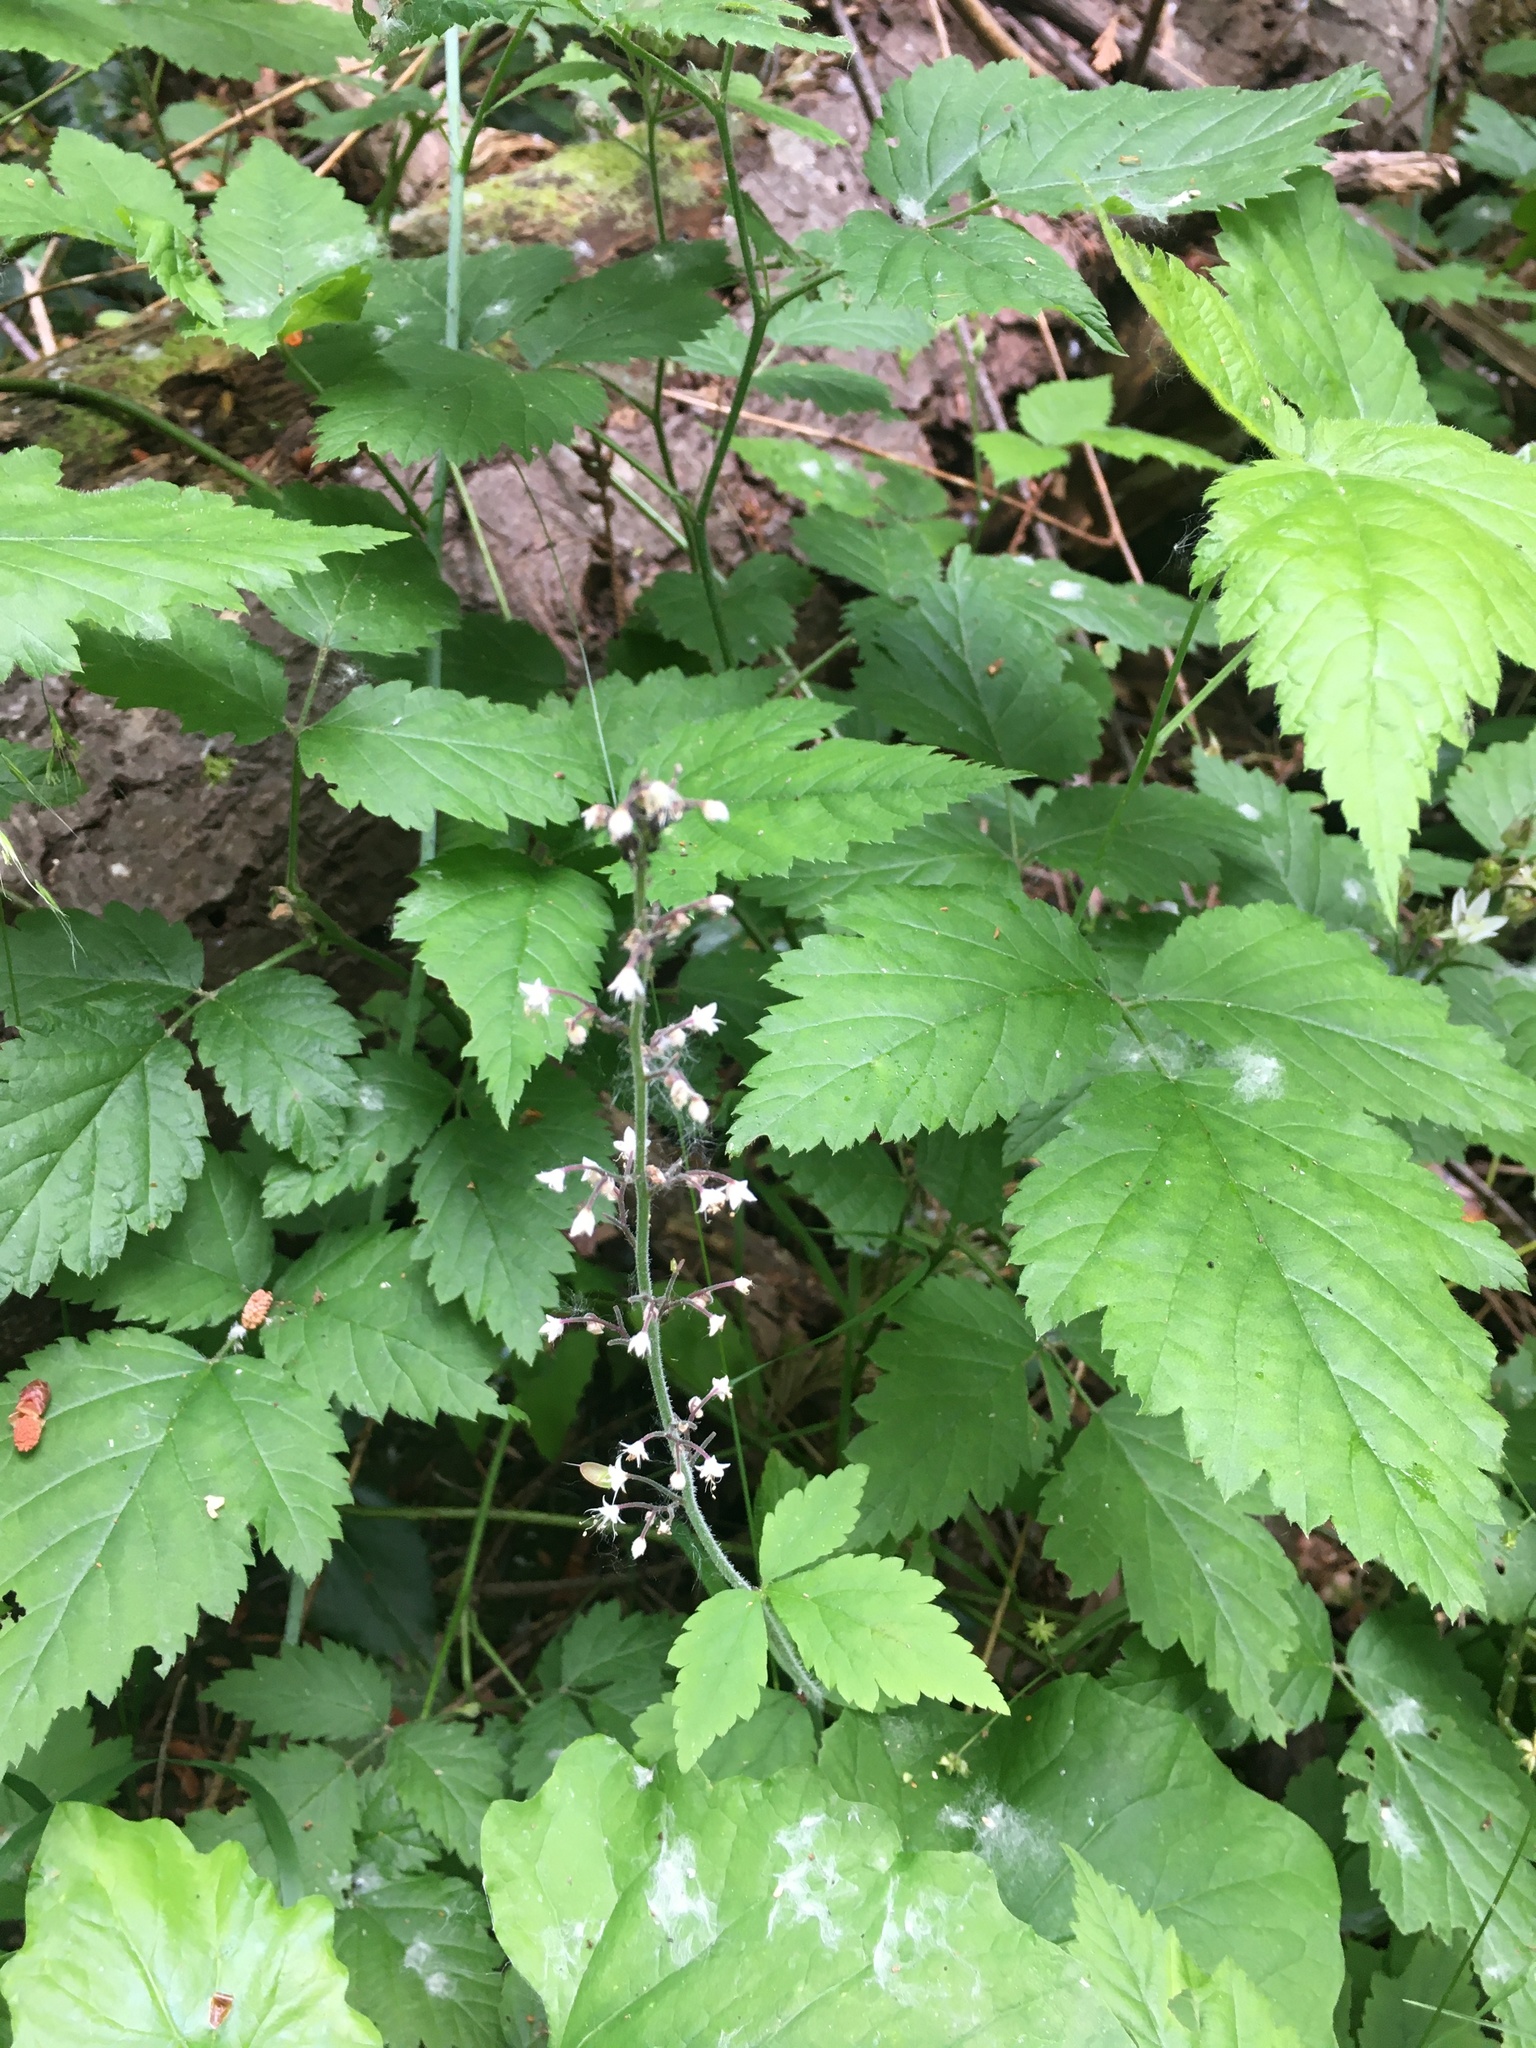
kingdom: Plantae
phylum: Tracheophyta
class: Magnoliopsida
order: Saxifragales
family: Saxifragaceae
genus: Tiarella
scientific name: Tiarella trifoliata
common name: Sugar-scoop
